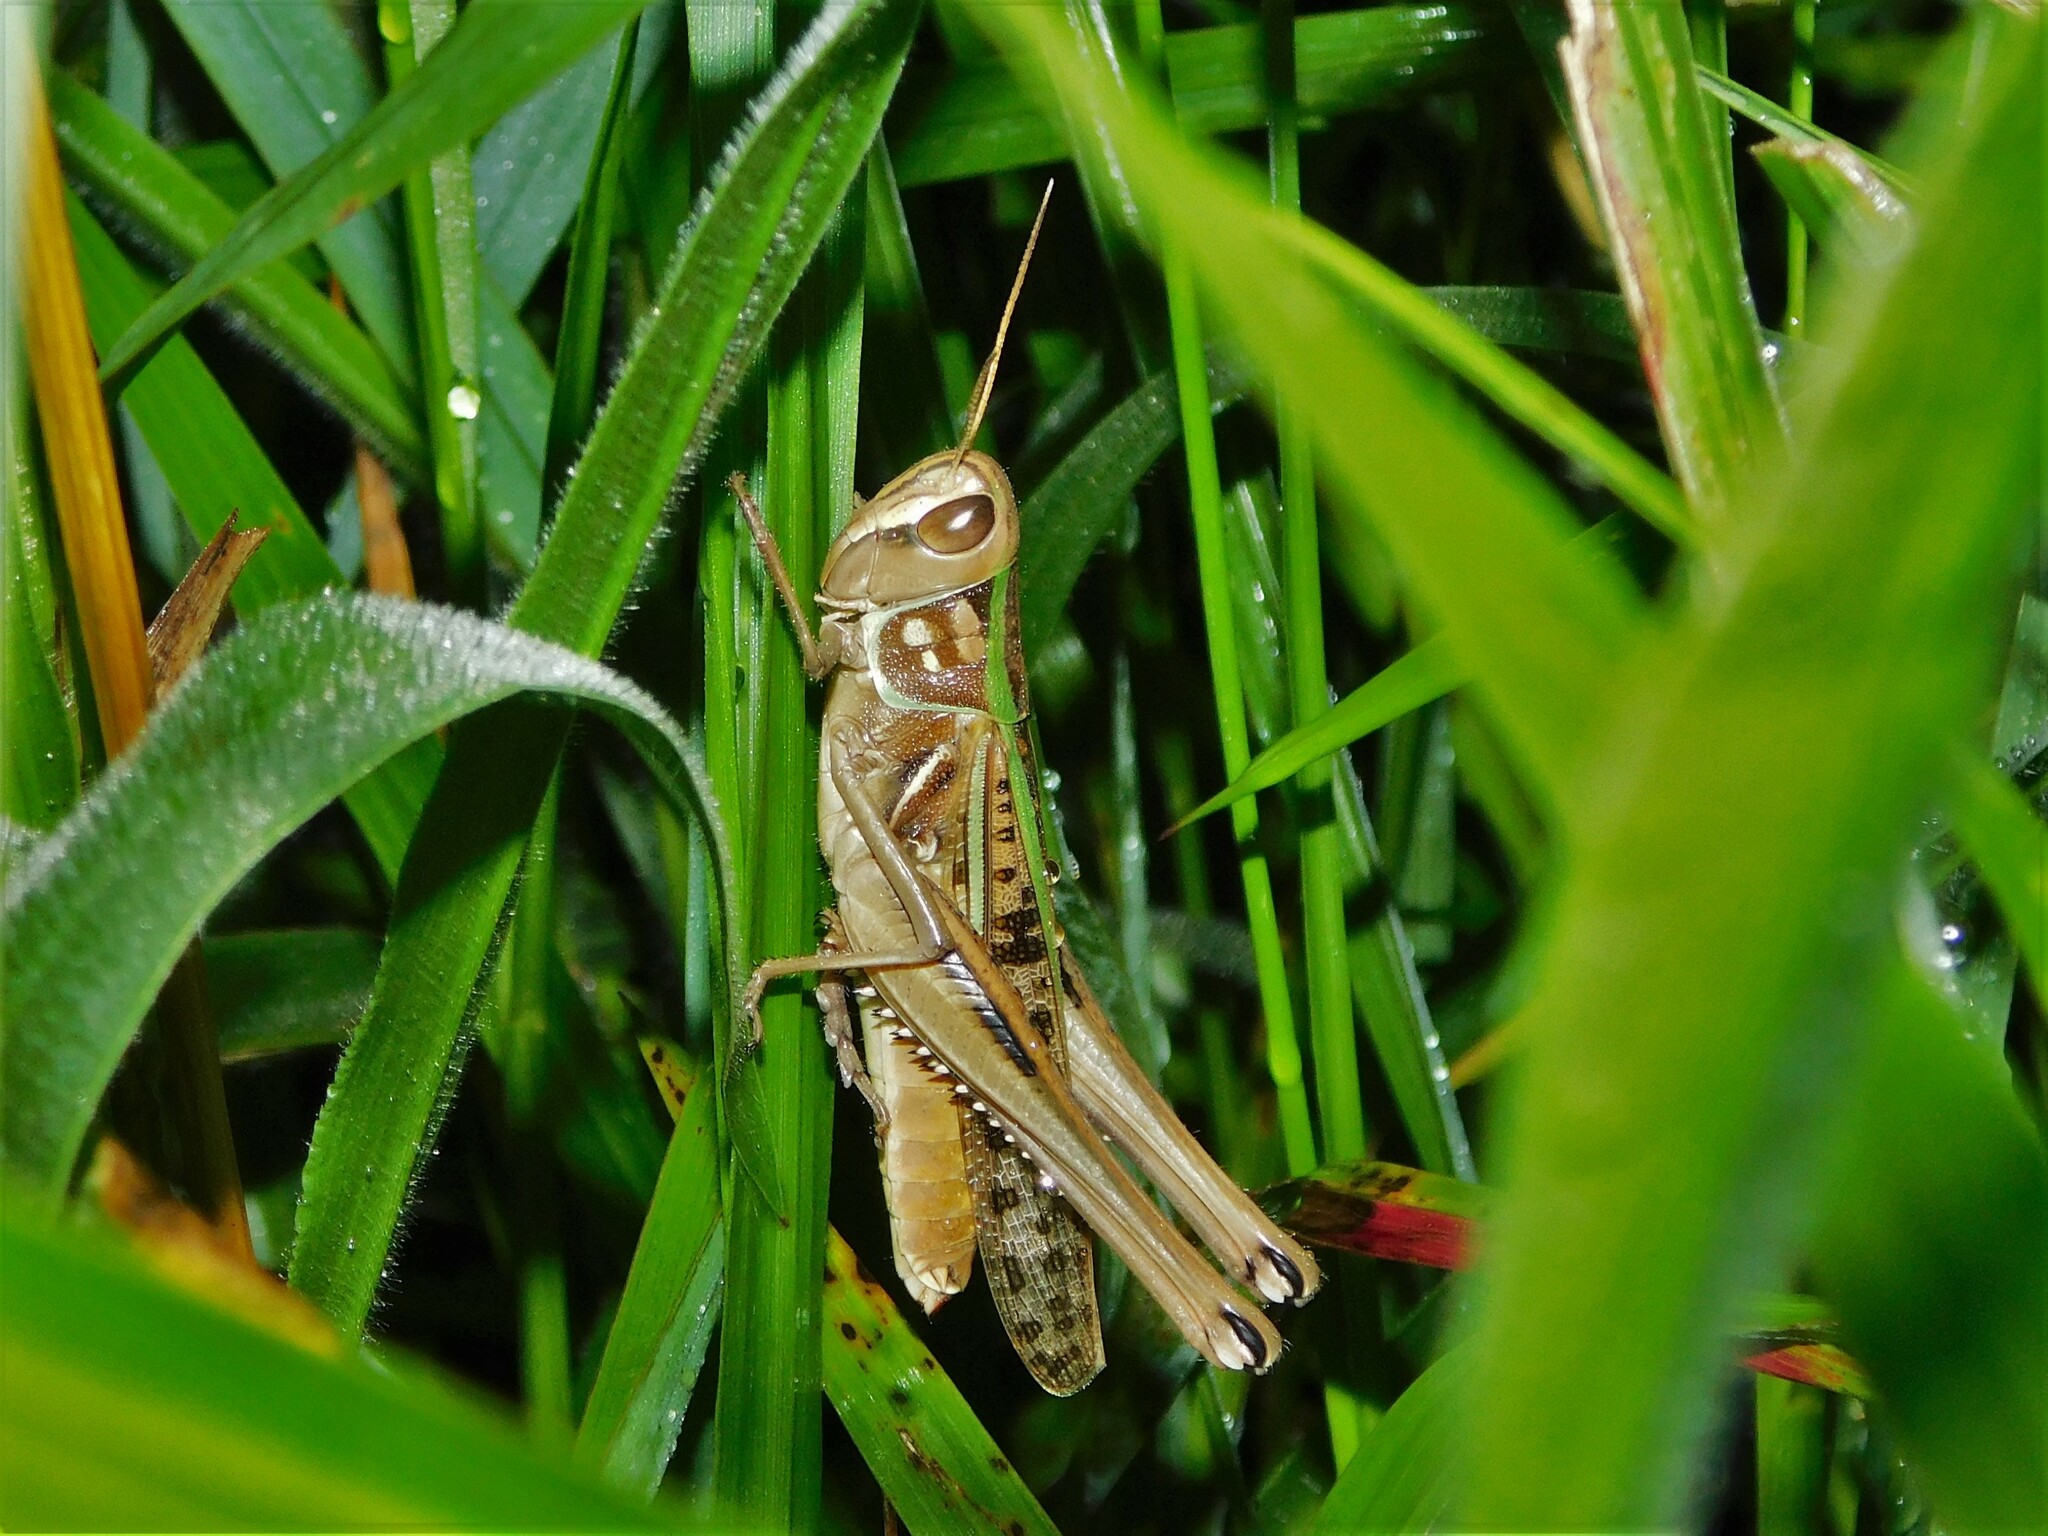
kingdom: Animalia
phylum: Arthropoda
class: Insecta
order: Orthoptera
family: Acrididae
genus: Cataloipus
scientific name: Cataloipus oberthuri
